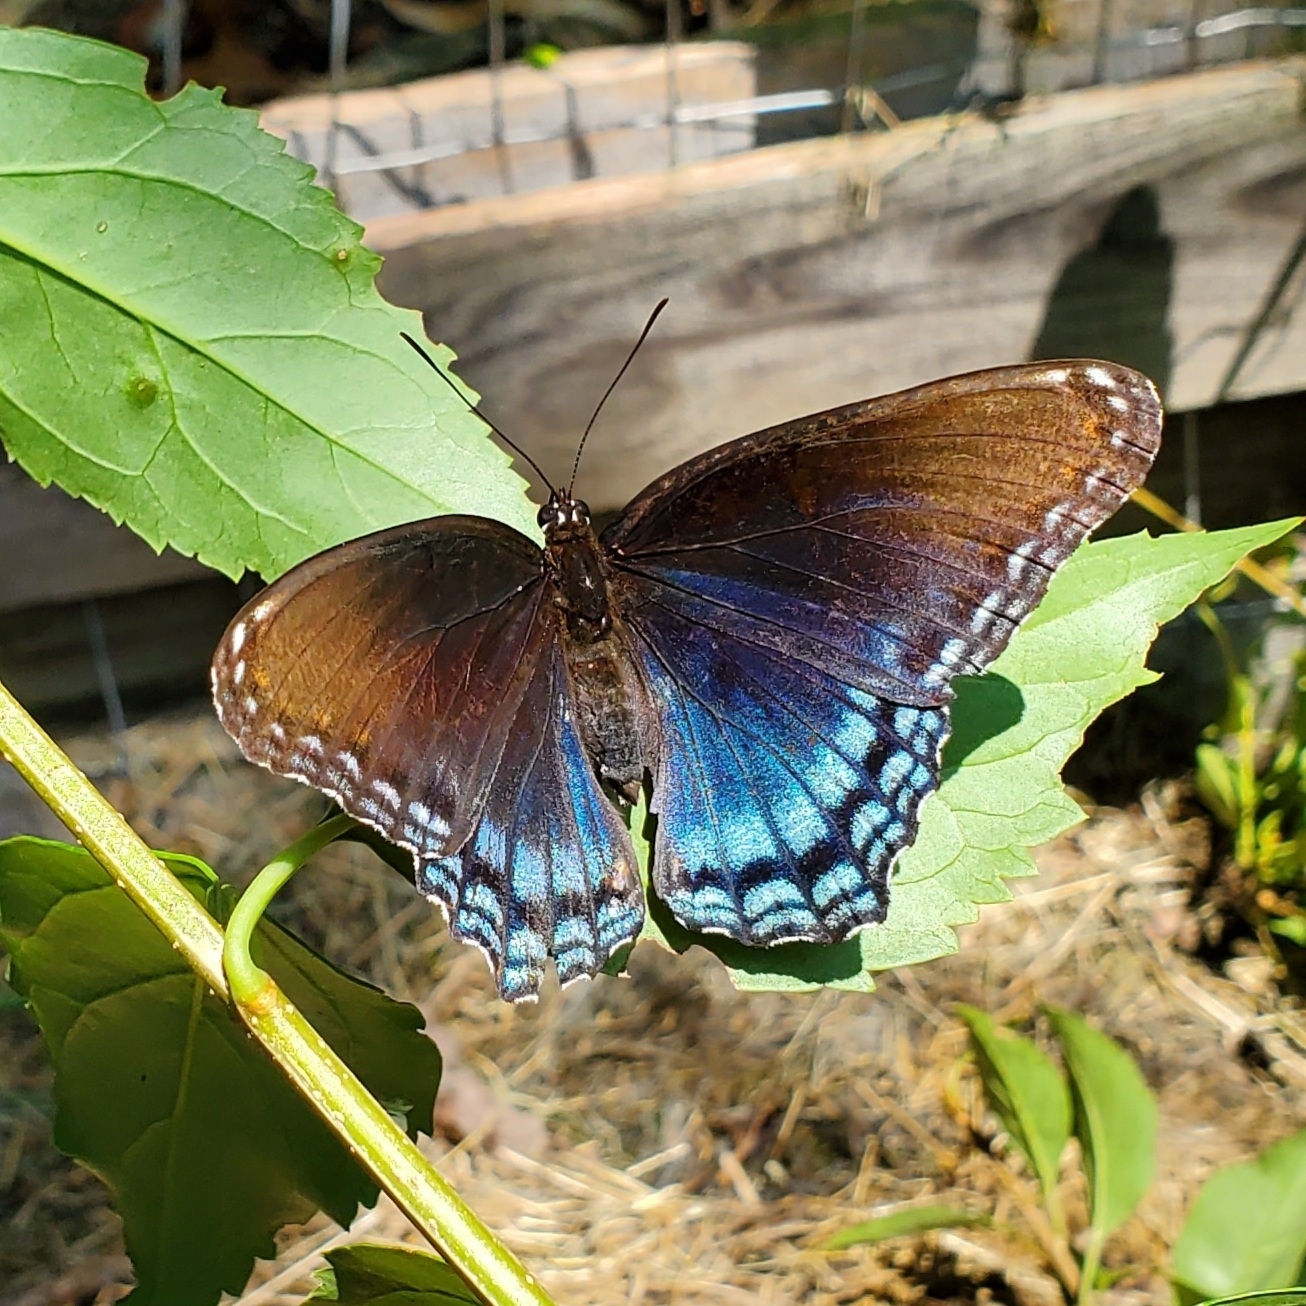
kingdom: Animalia
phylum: Arthropoda
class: Insecta
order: Lepidoptera
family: Nymphalidae
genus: Limenitis
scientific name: Limenitis arthemis
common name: Red-spotted admiral
